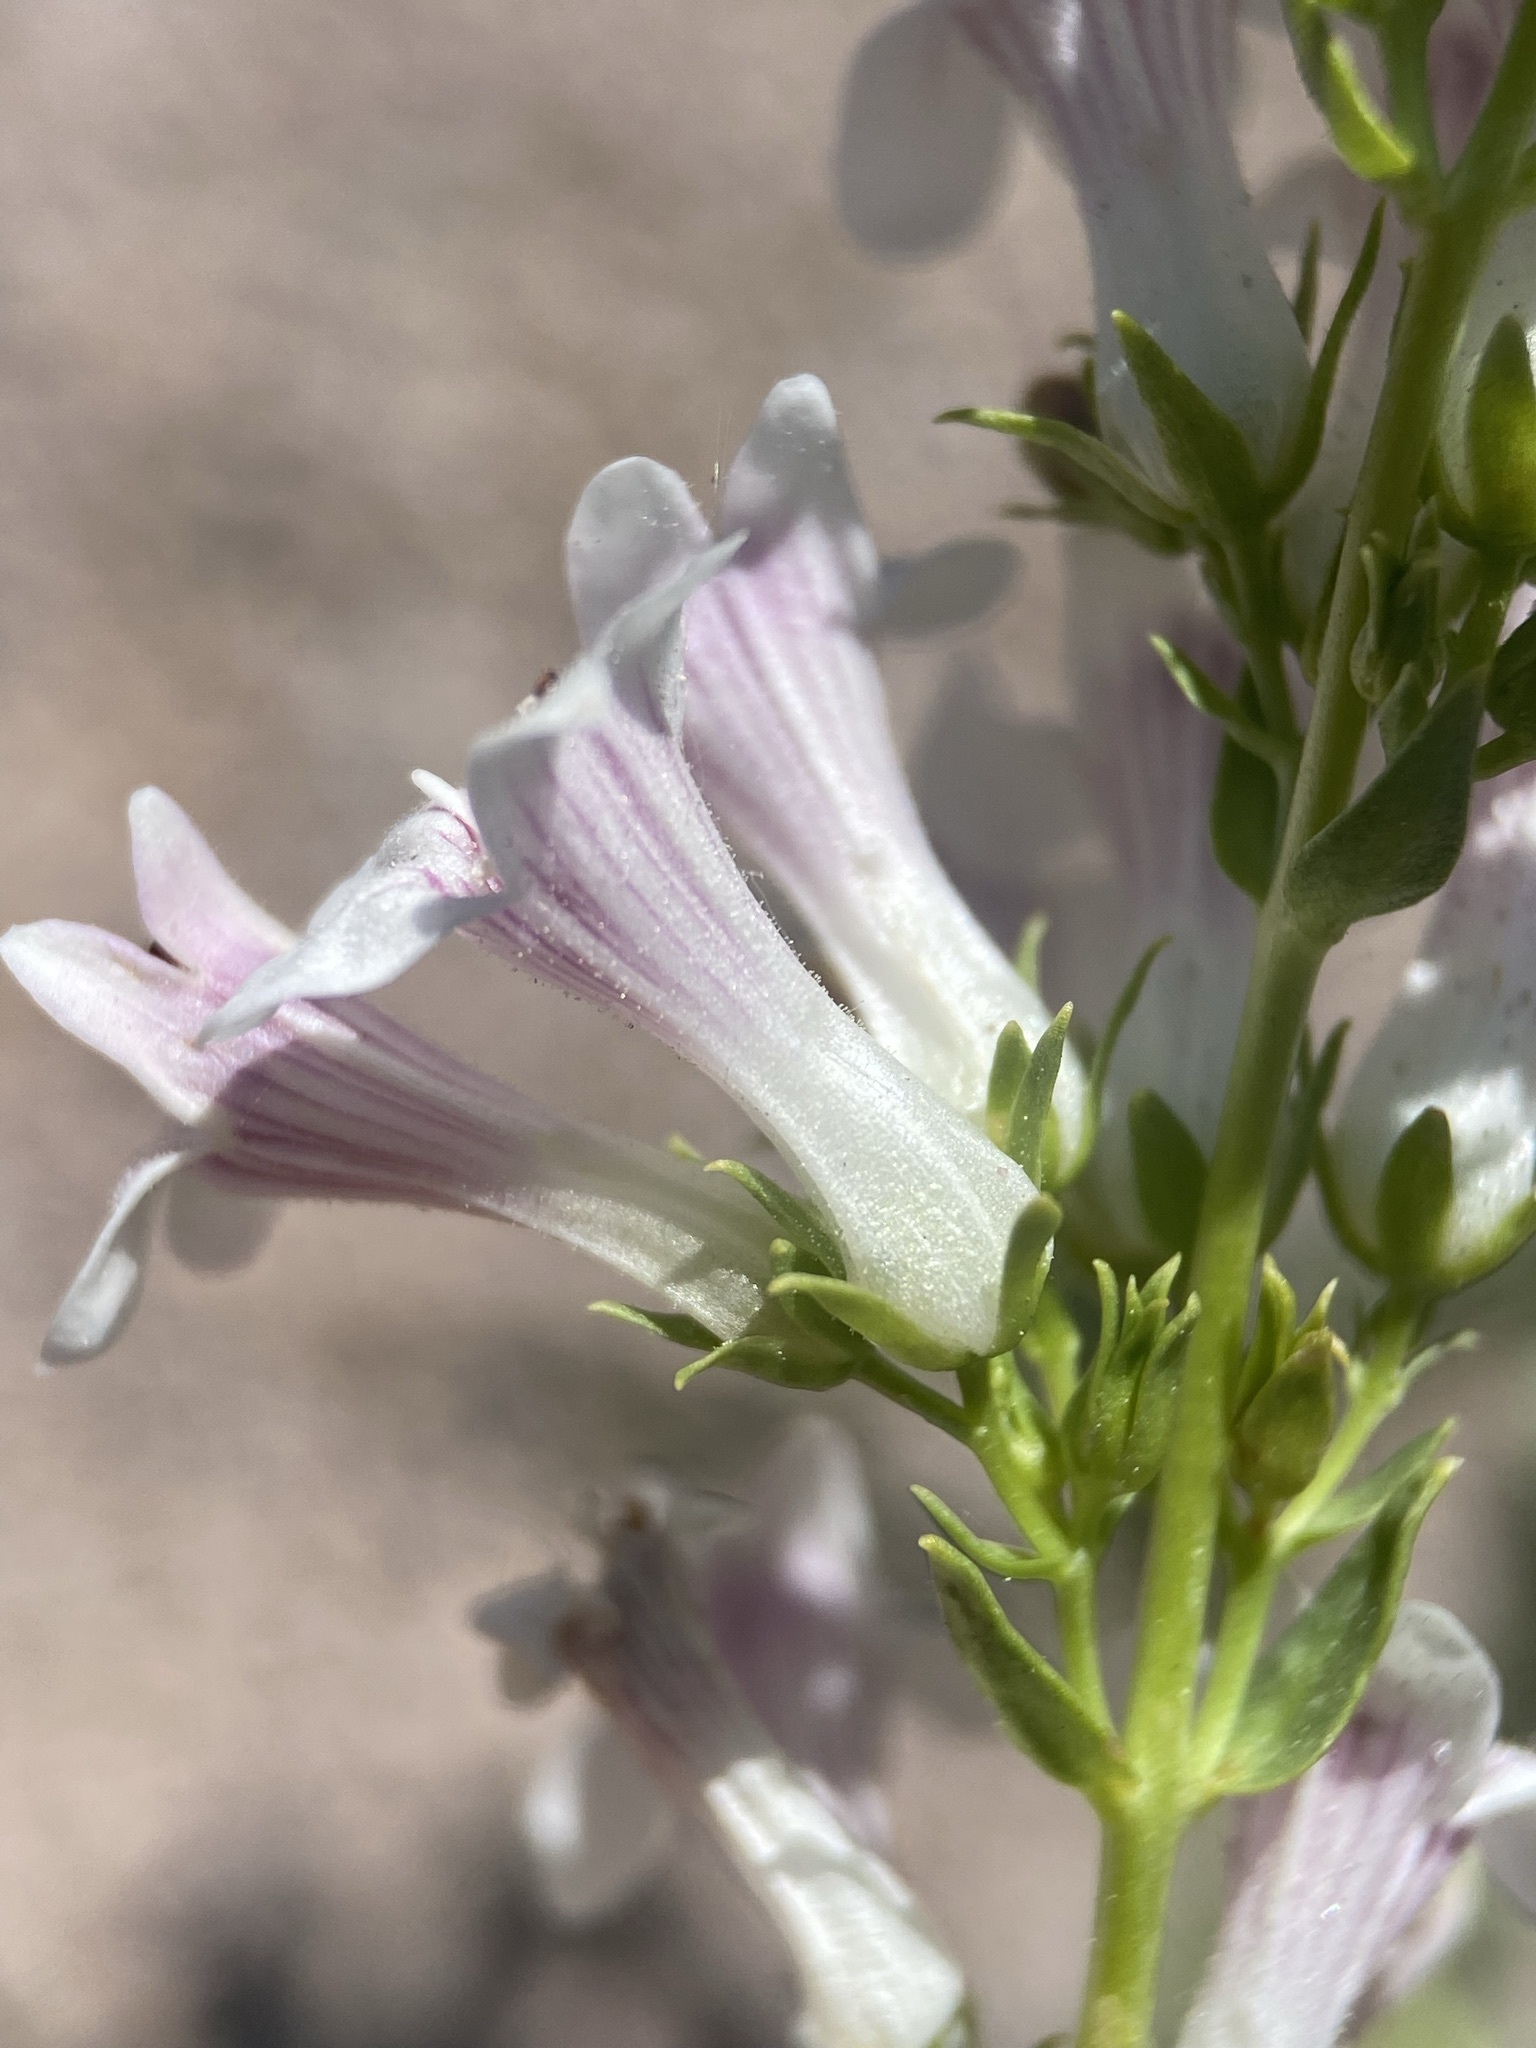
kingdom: Plantae
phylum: Tracheophyta
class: Magnoliopsida
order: Lamiales
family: Plantaginaceae
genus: Penstemon
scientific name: Penstemon deustus
